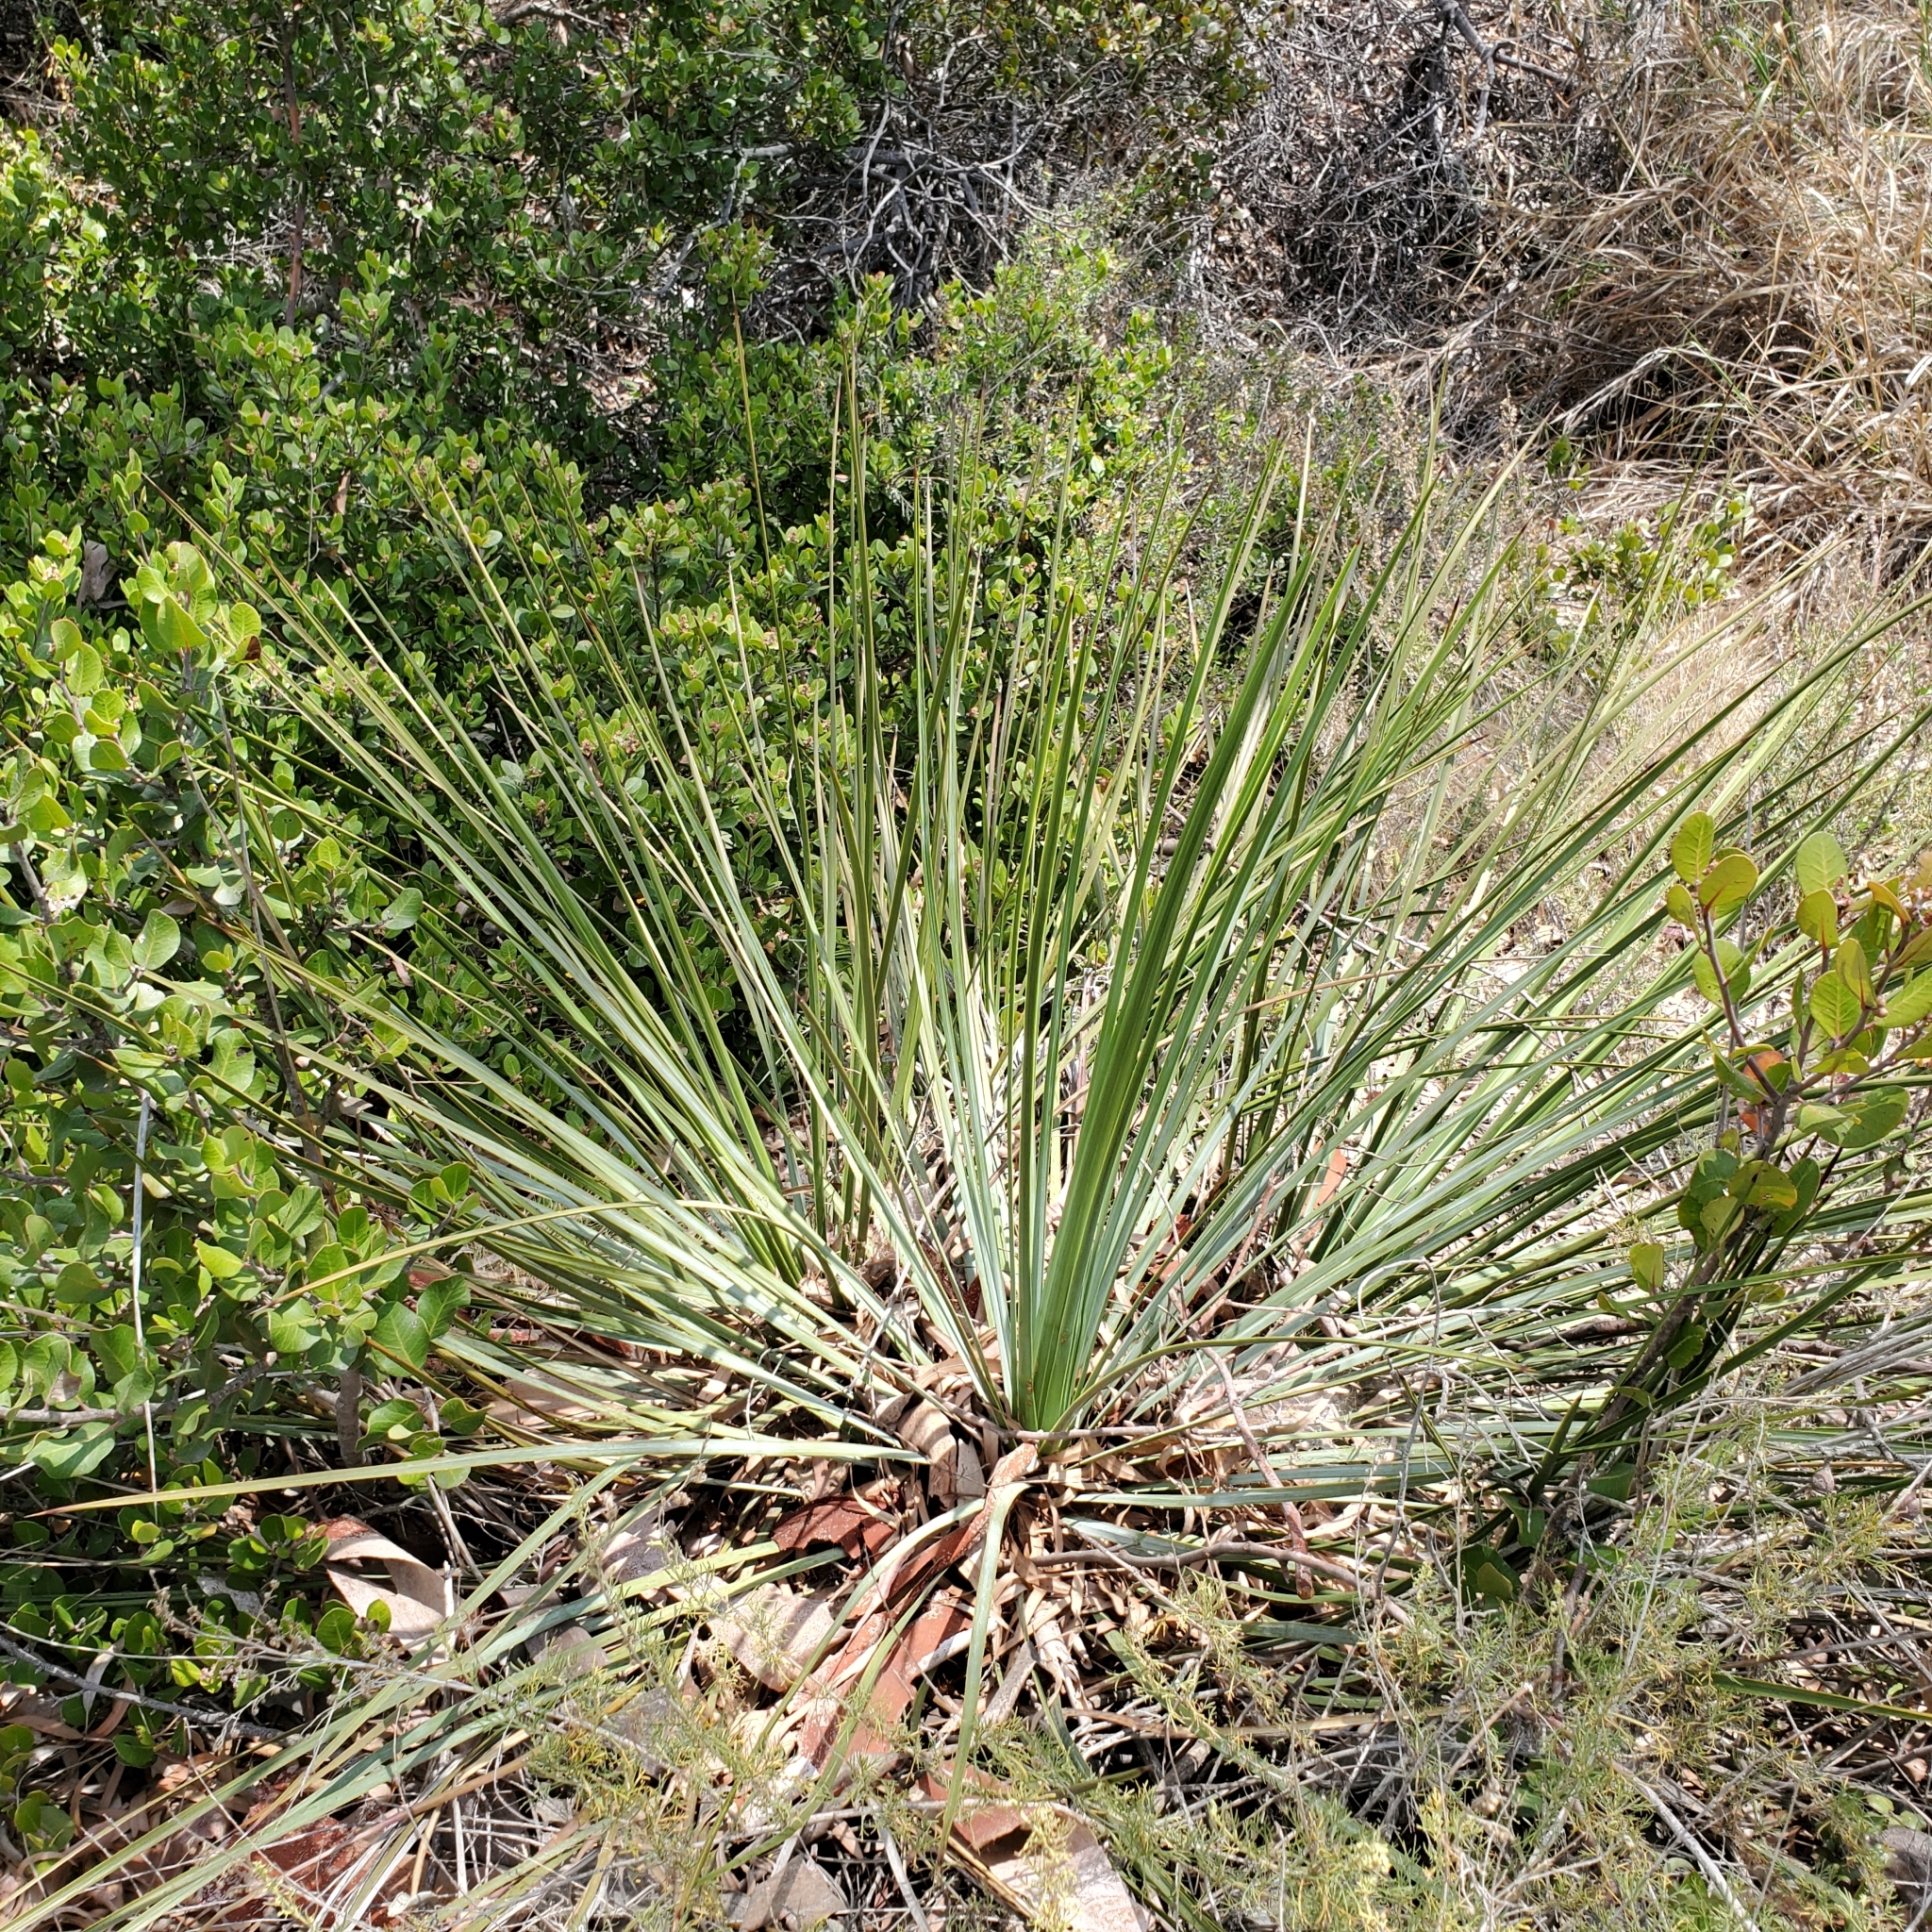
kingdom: Plantae
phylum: Tracheophyta
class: Liliopsida
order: Asparagales
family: Asparagaceae
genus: Hesperoyucca
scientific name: Hesperoyucca whipplei
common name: Our lord's-candle
